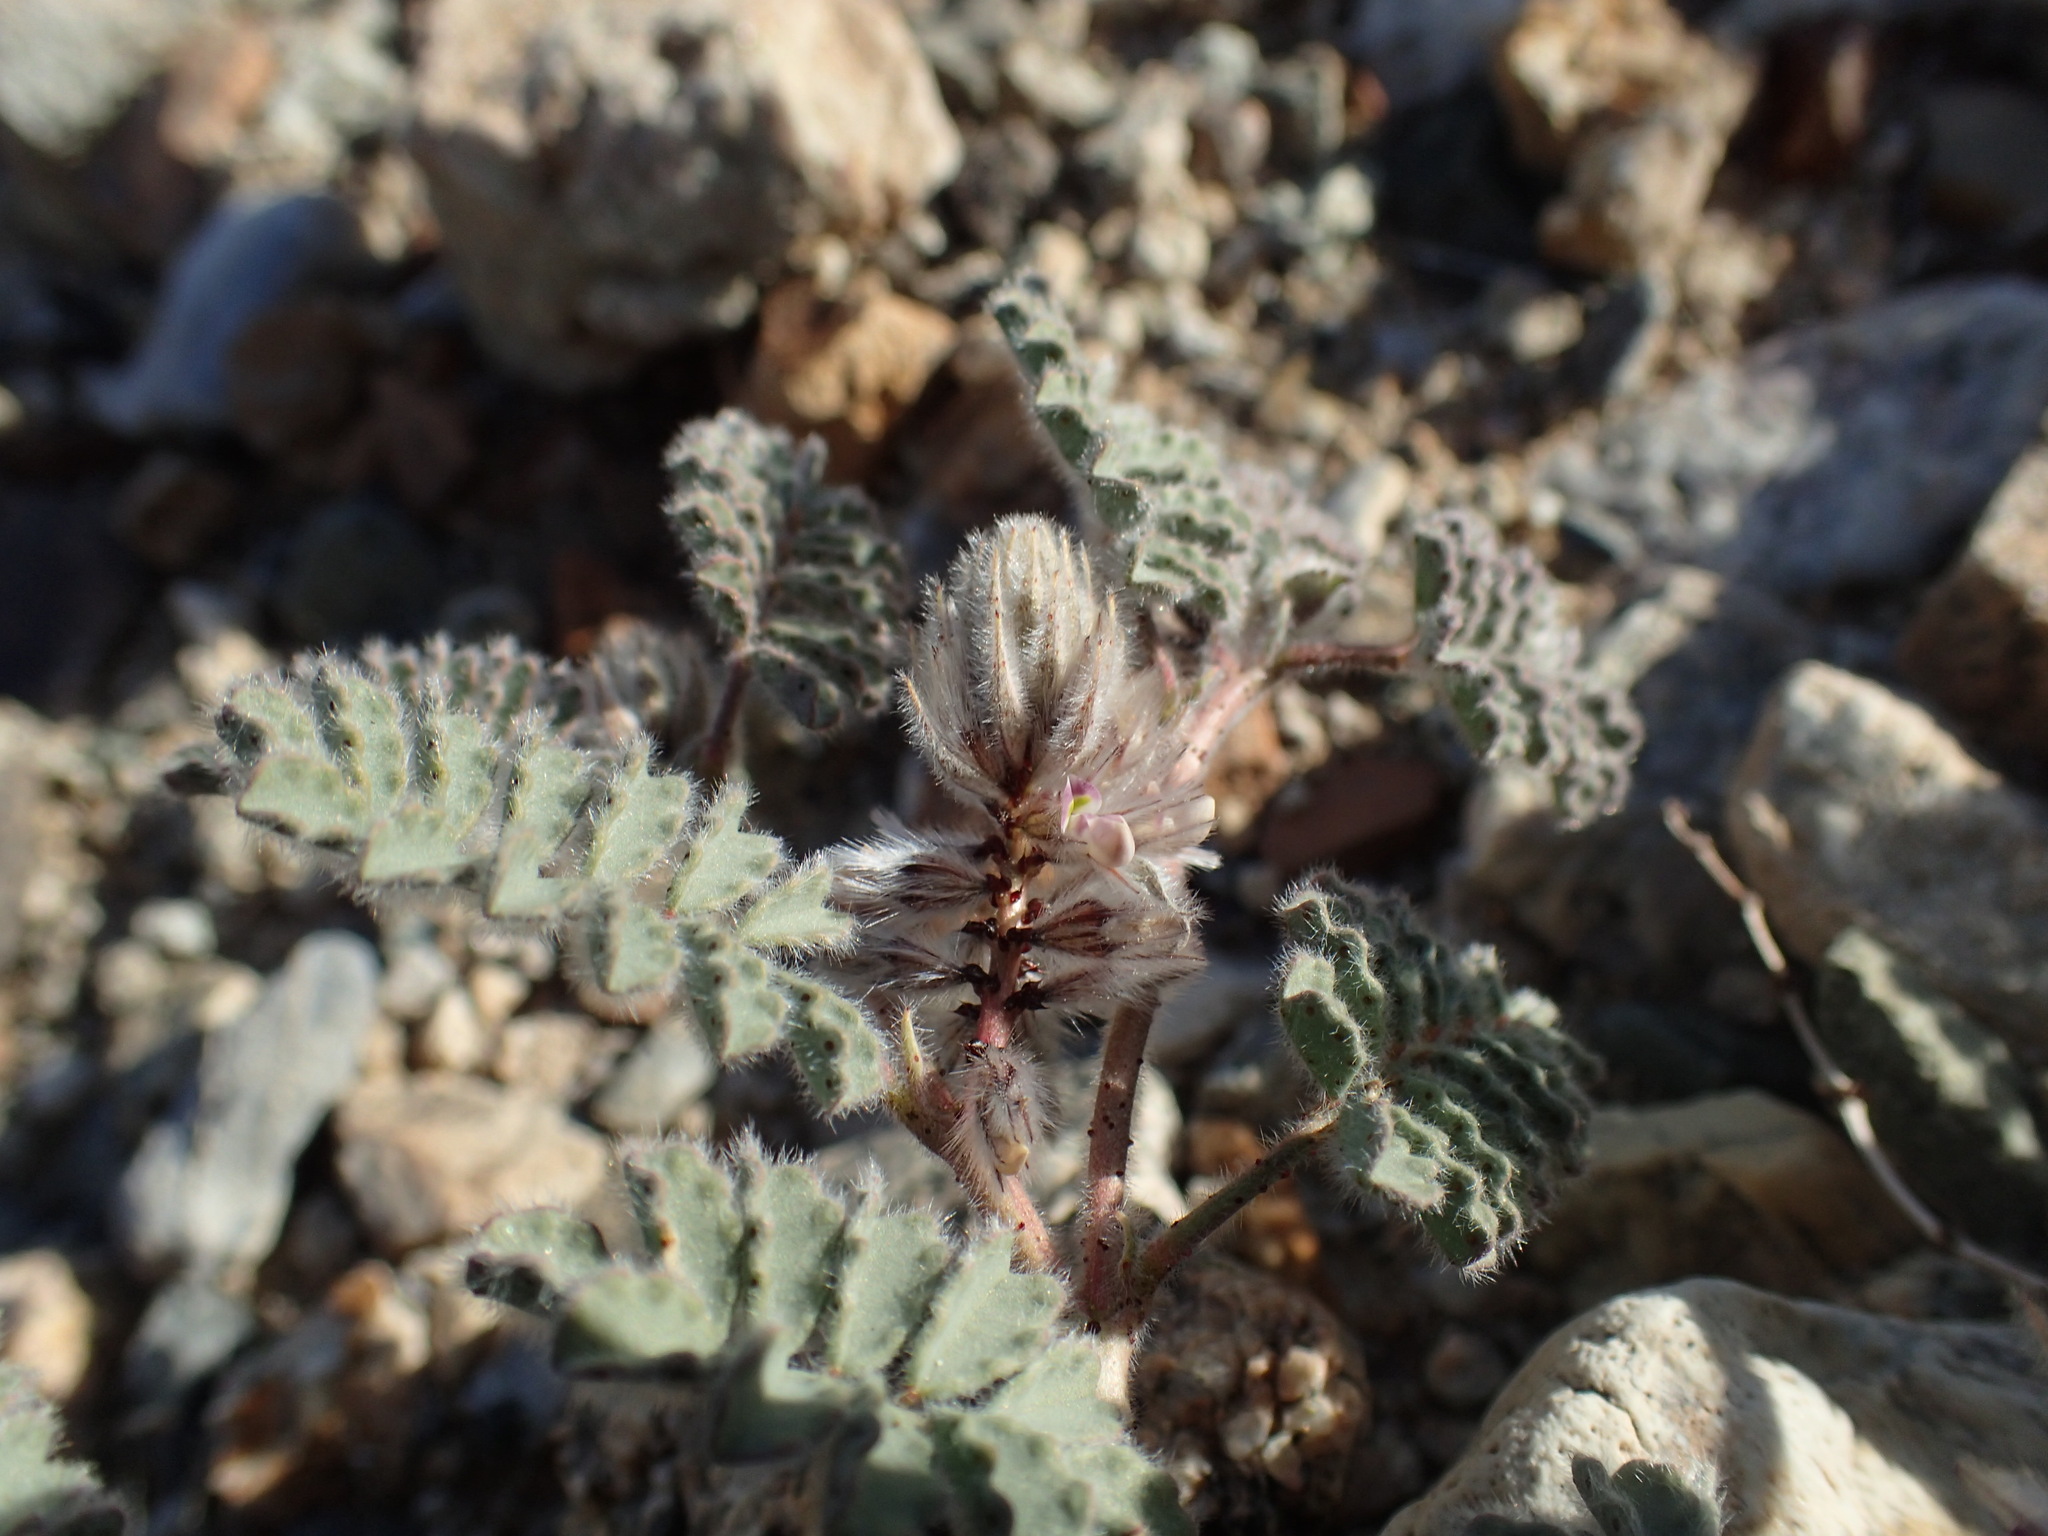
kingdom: Plantae
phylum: Tracheophyta
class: Magnoliopsida
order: Fabales
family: Fabaceae
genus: Dalea
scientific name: Dalea mollissima
